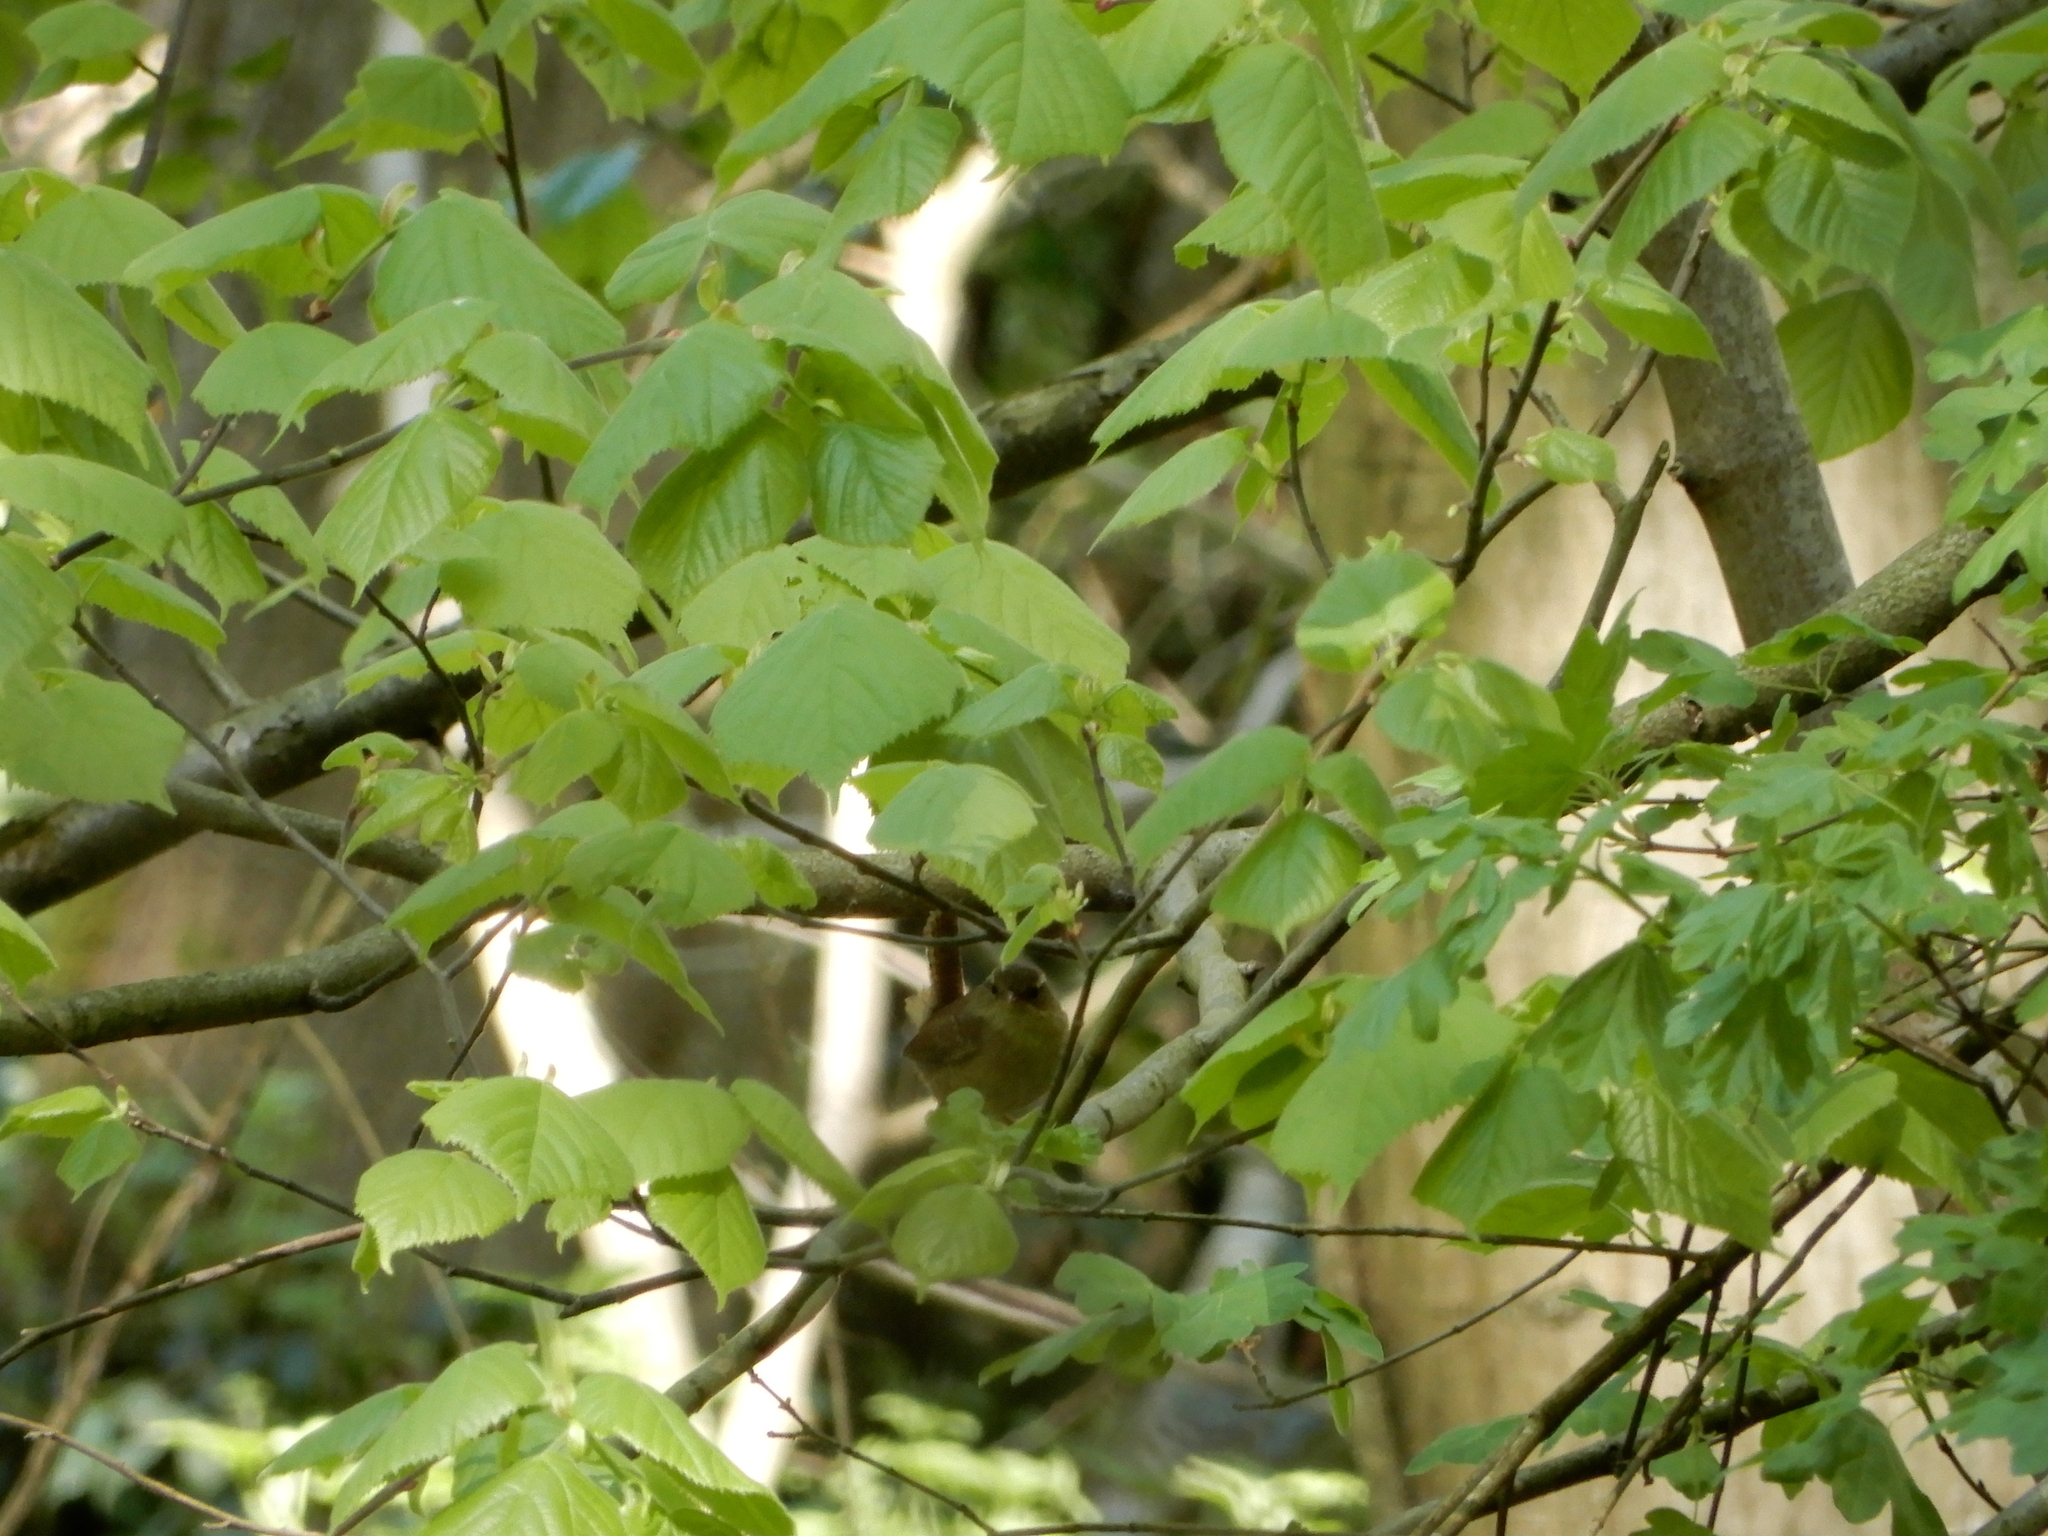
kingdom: Animalia
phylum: Chordata
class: Aves
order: Passeriformes
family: Troglodytidae
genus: Troglodytes
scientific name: Troglodytes troglodytes
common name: Eurasian wren
